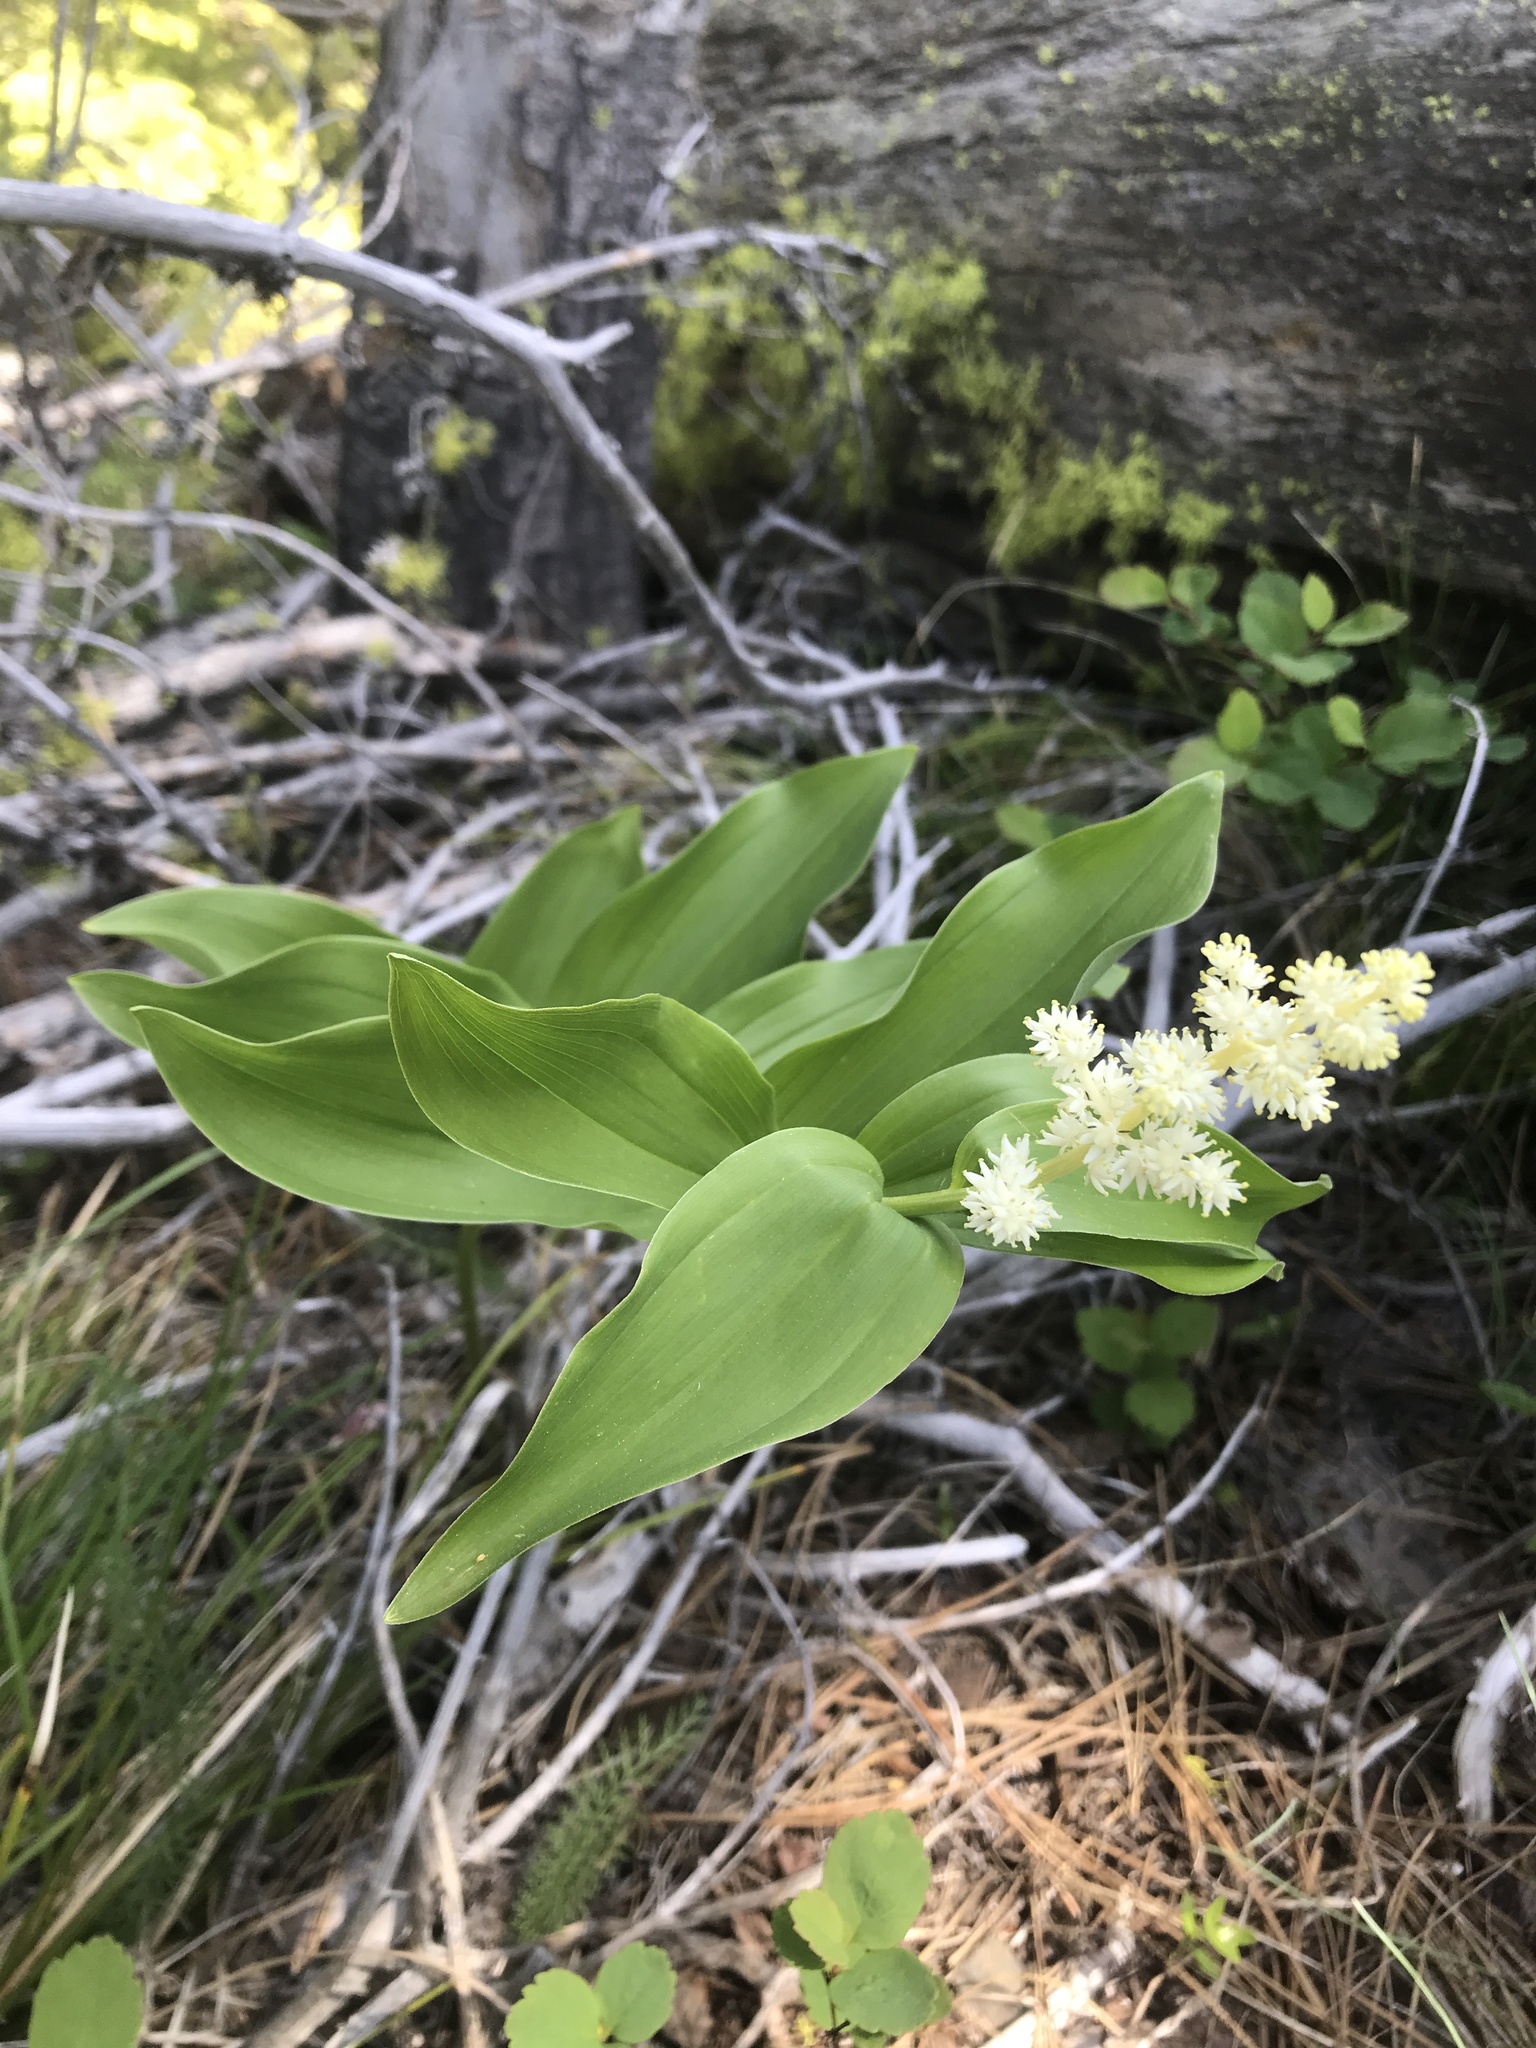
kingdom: Plantae
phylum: Tracheophyta
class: Liliopsida
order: Asparagales
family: Asparagaceae
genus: Maianthemum
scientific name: Maianthemum racemosum
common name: False spikenard
